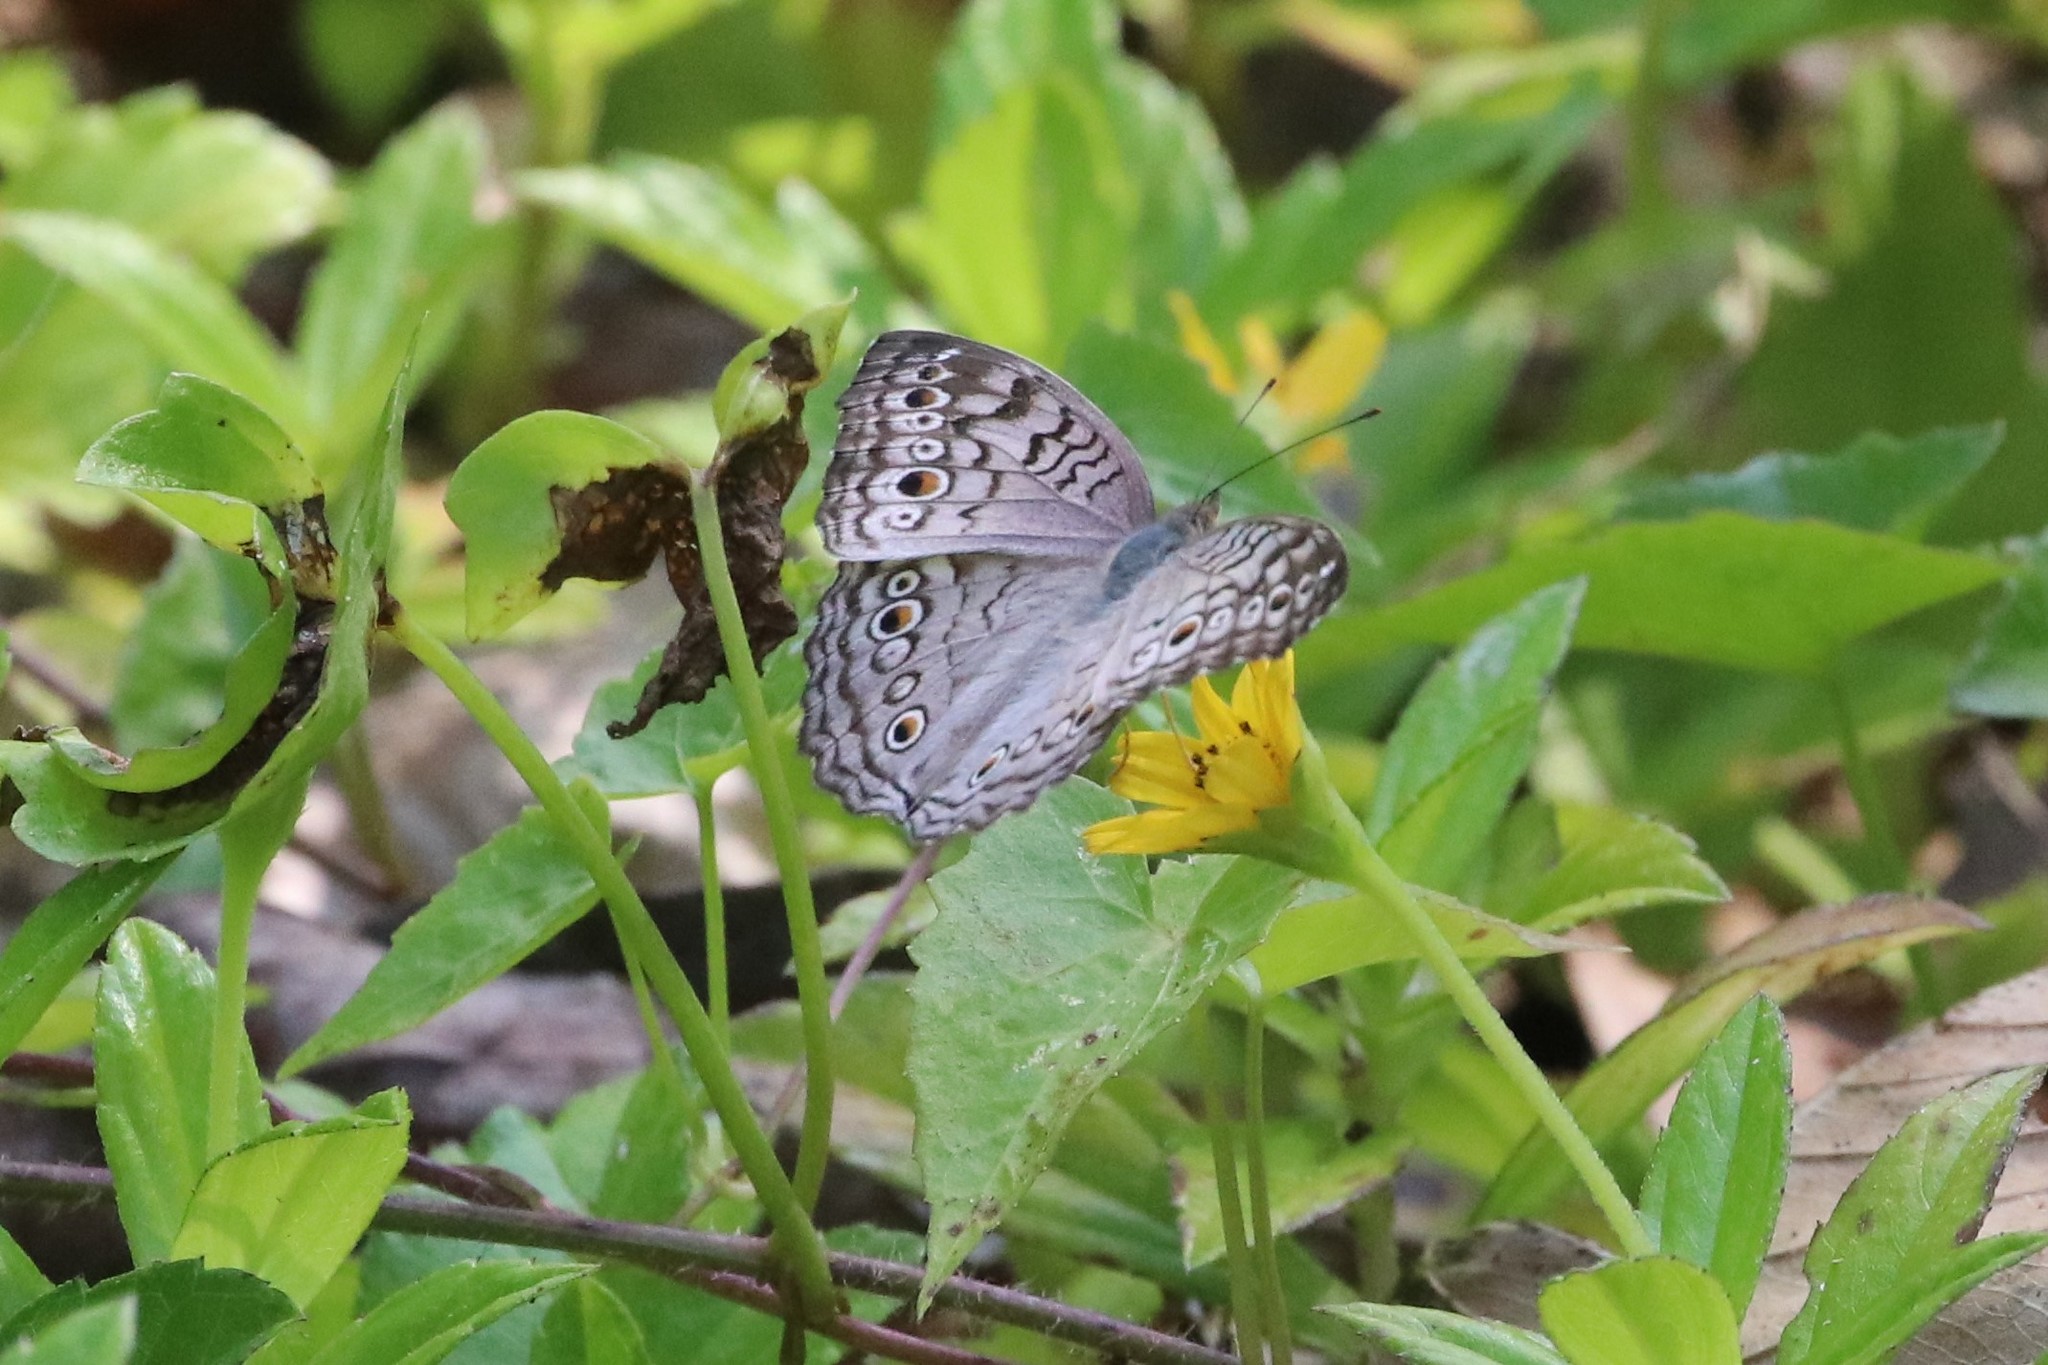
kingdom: Animalia
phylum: Arthropoda
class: Insecta
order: Lepidoptera
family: Nymphalidae
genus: Junonia
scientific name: Junonia atlites
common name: Grey pansy
